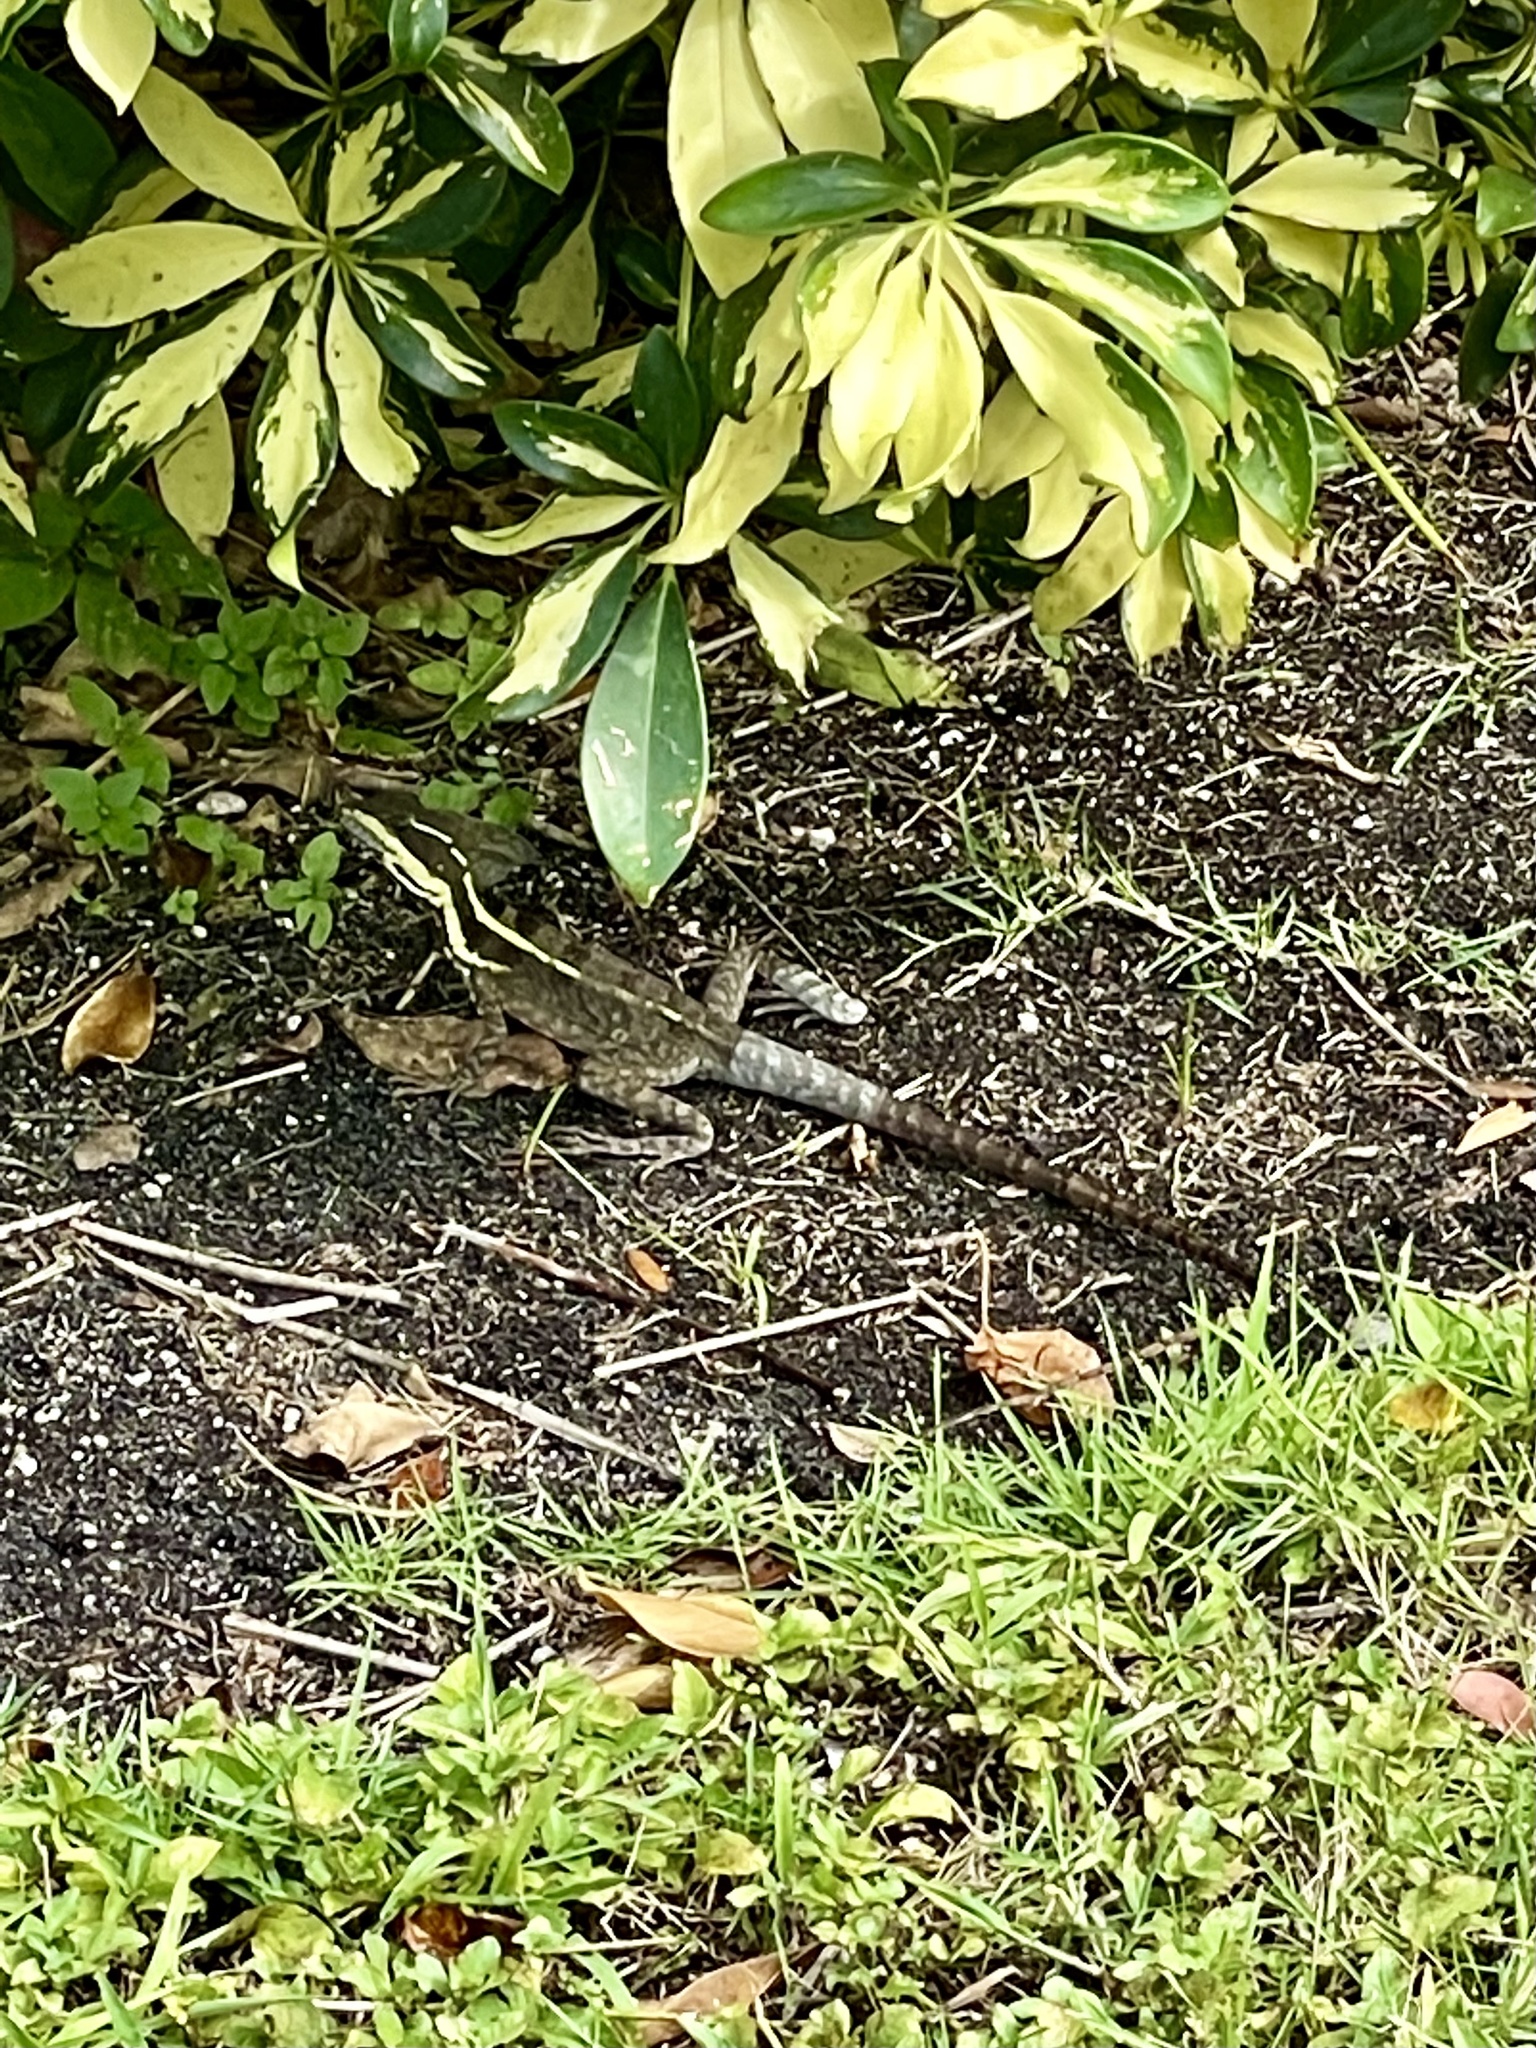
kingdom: Animalia
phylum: Chordata
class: Squamata
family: Corytophanidae
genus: Basiliscus
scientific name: Basiliscus vittatus
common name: Brown basilisk
